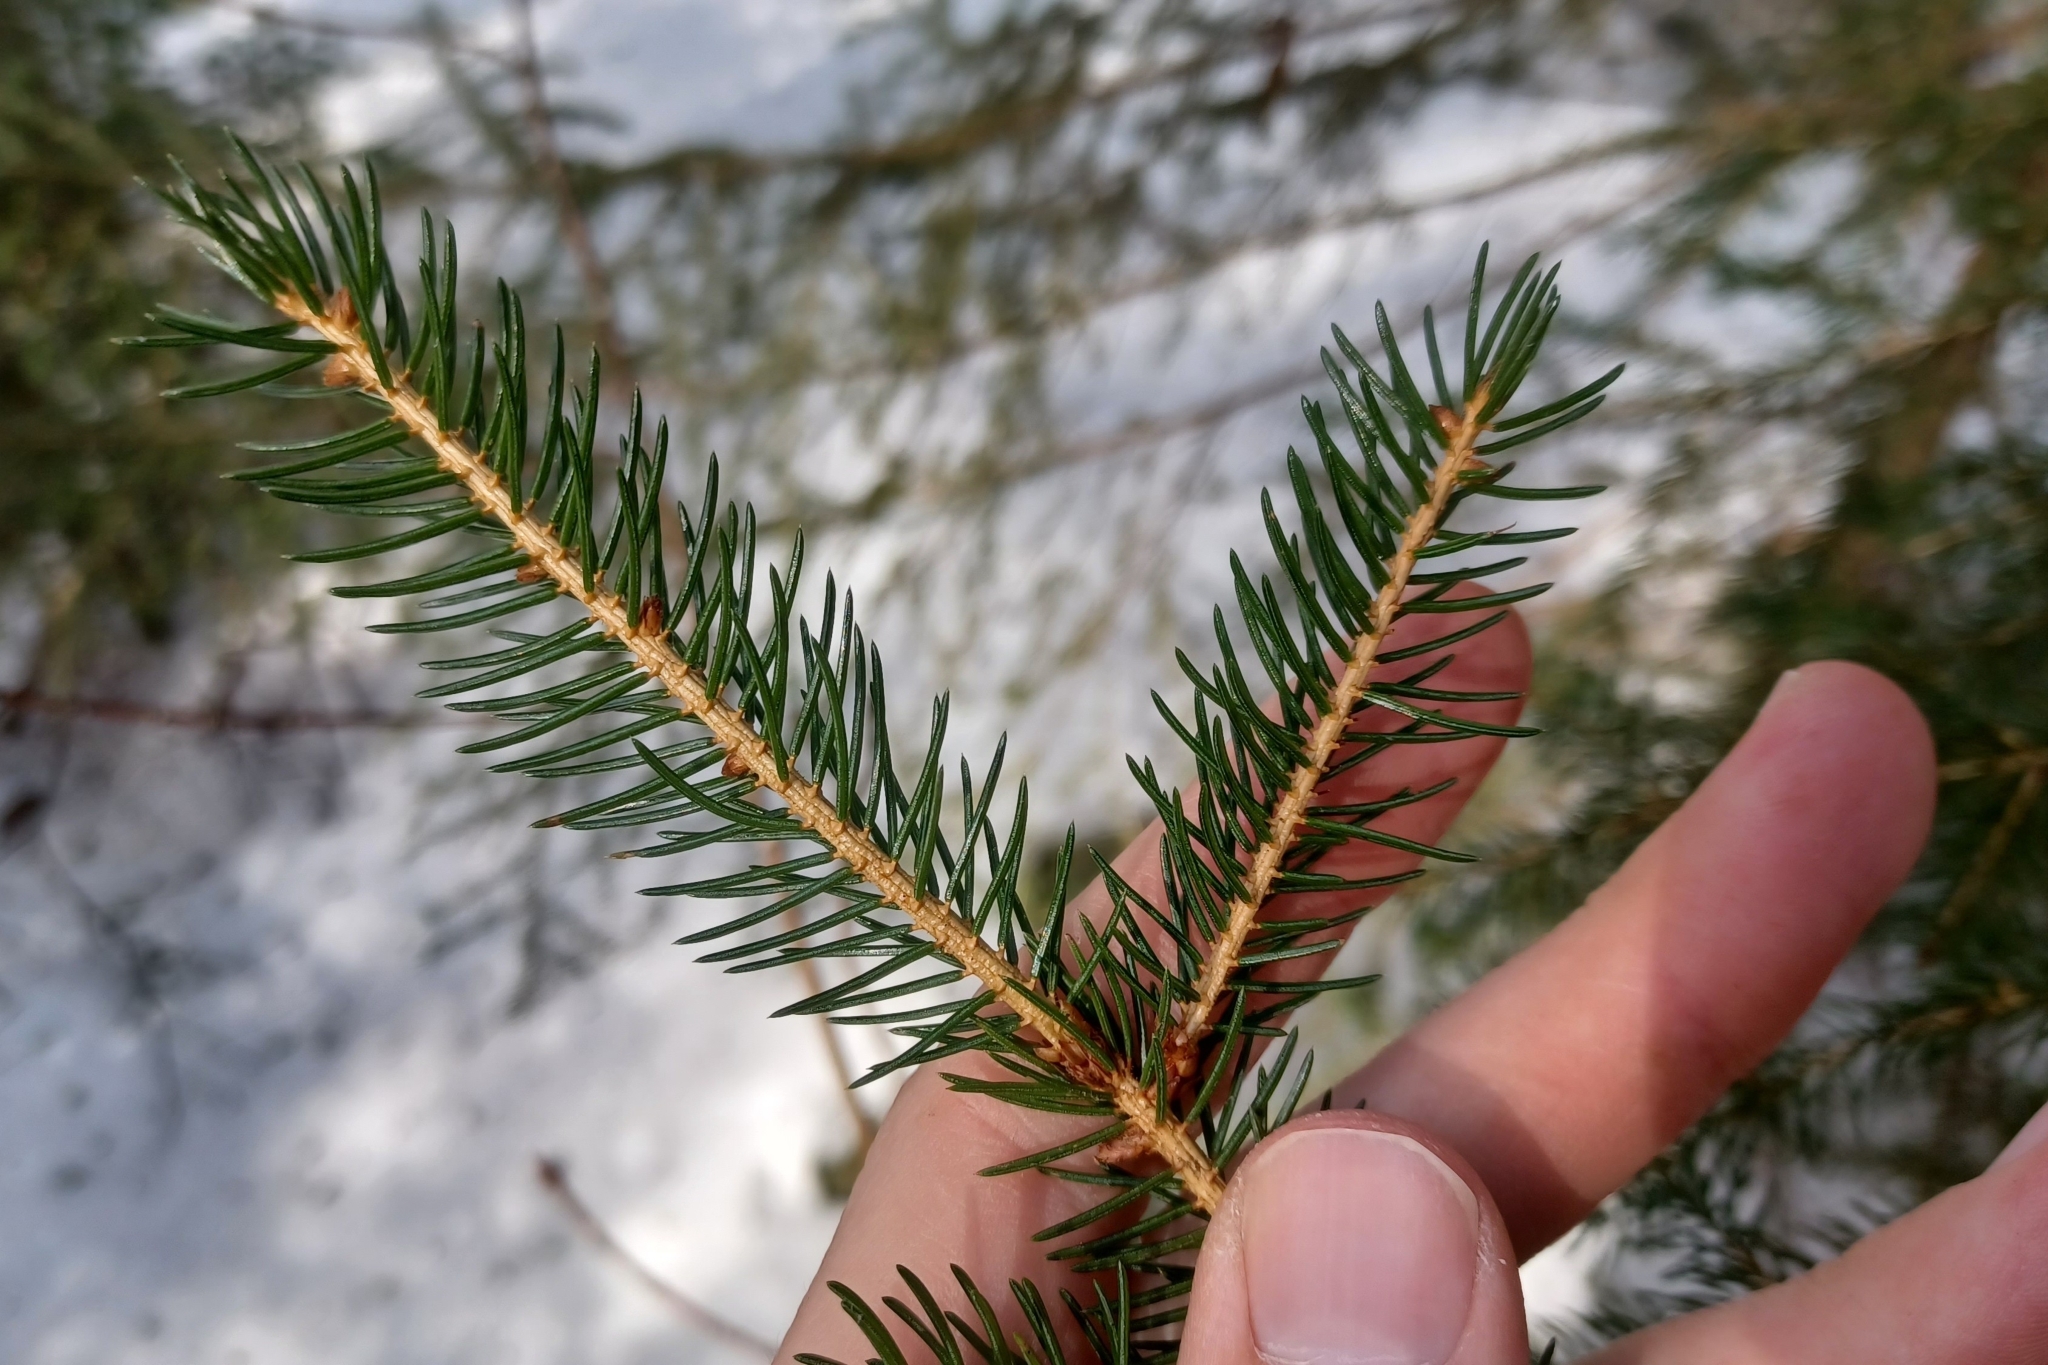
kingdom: Plantae
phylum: Tracheophyta
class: Pinopsida
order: Pinales
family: Pinaceae
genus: Picea
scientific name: Picea rubens
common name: Red spruce
